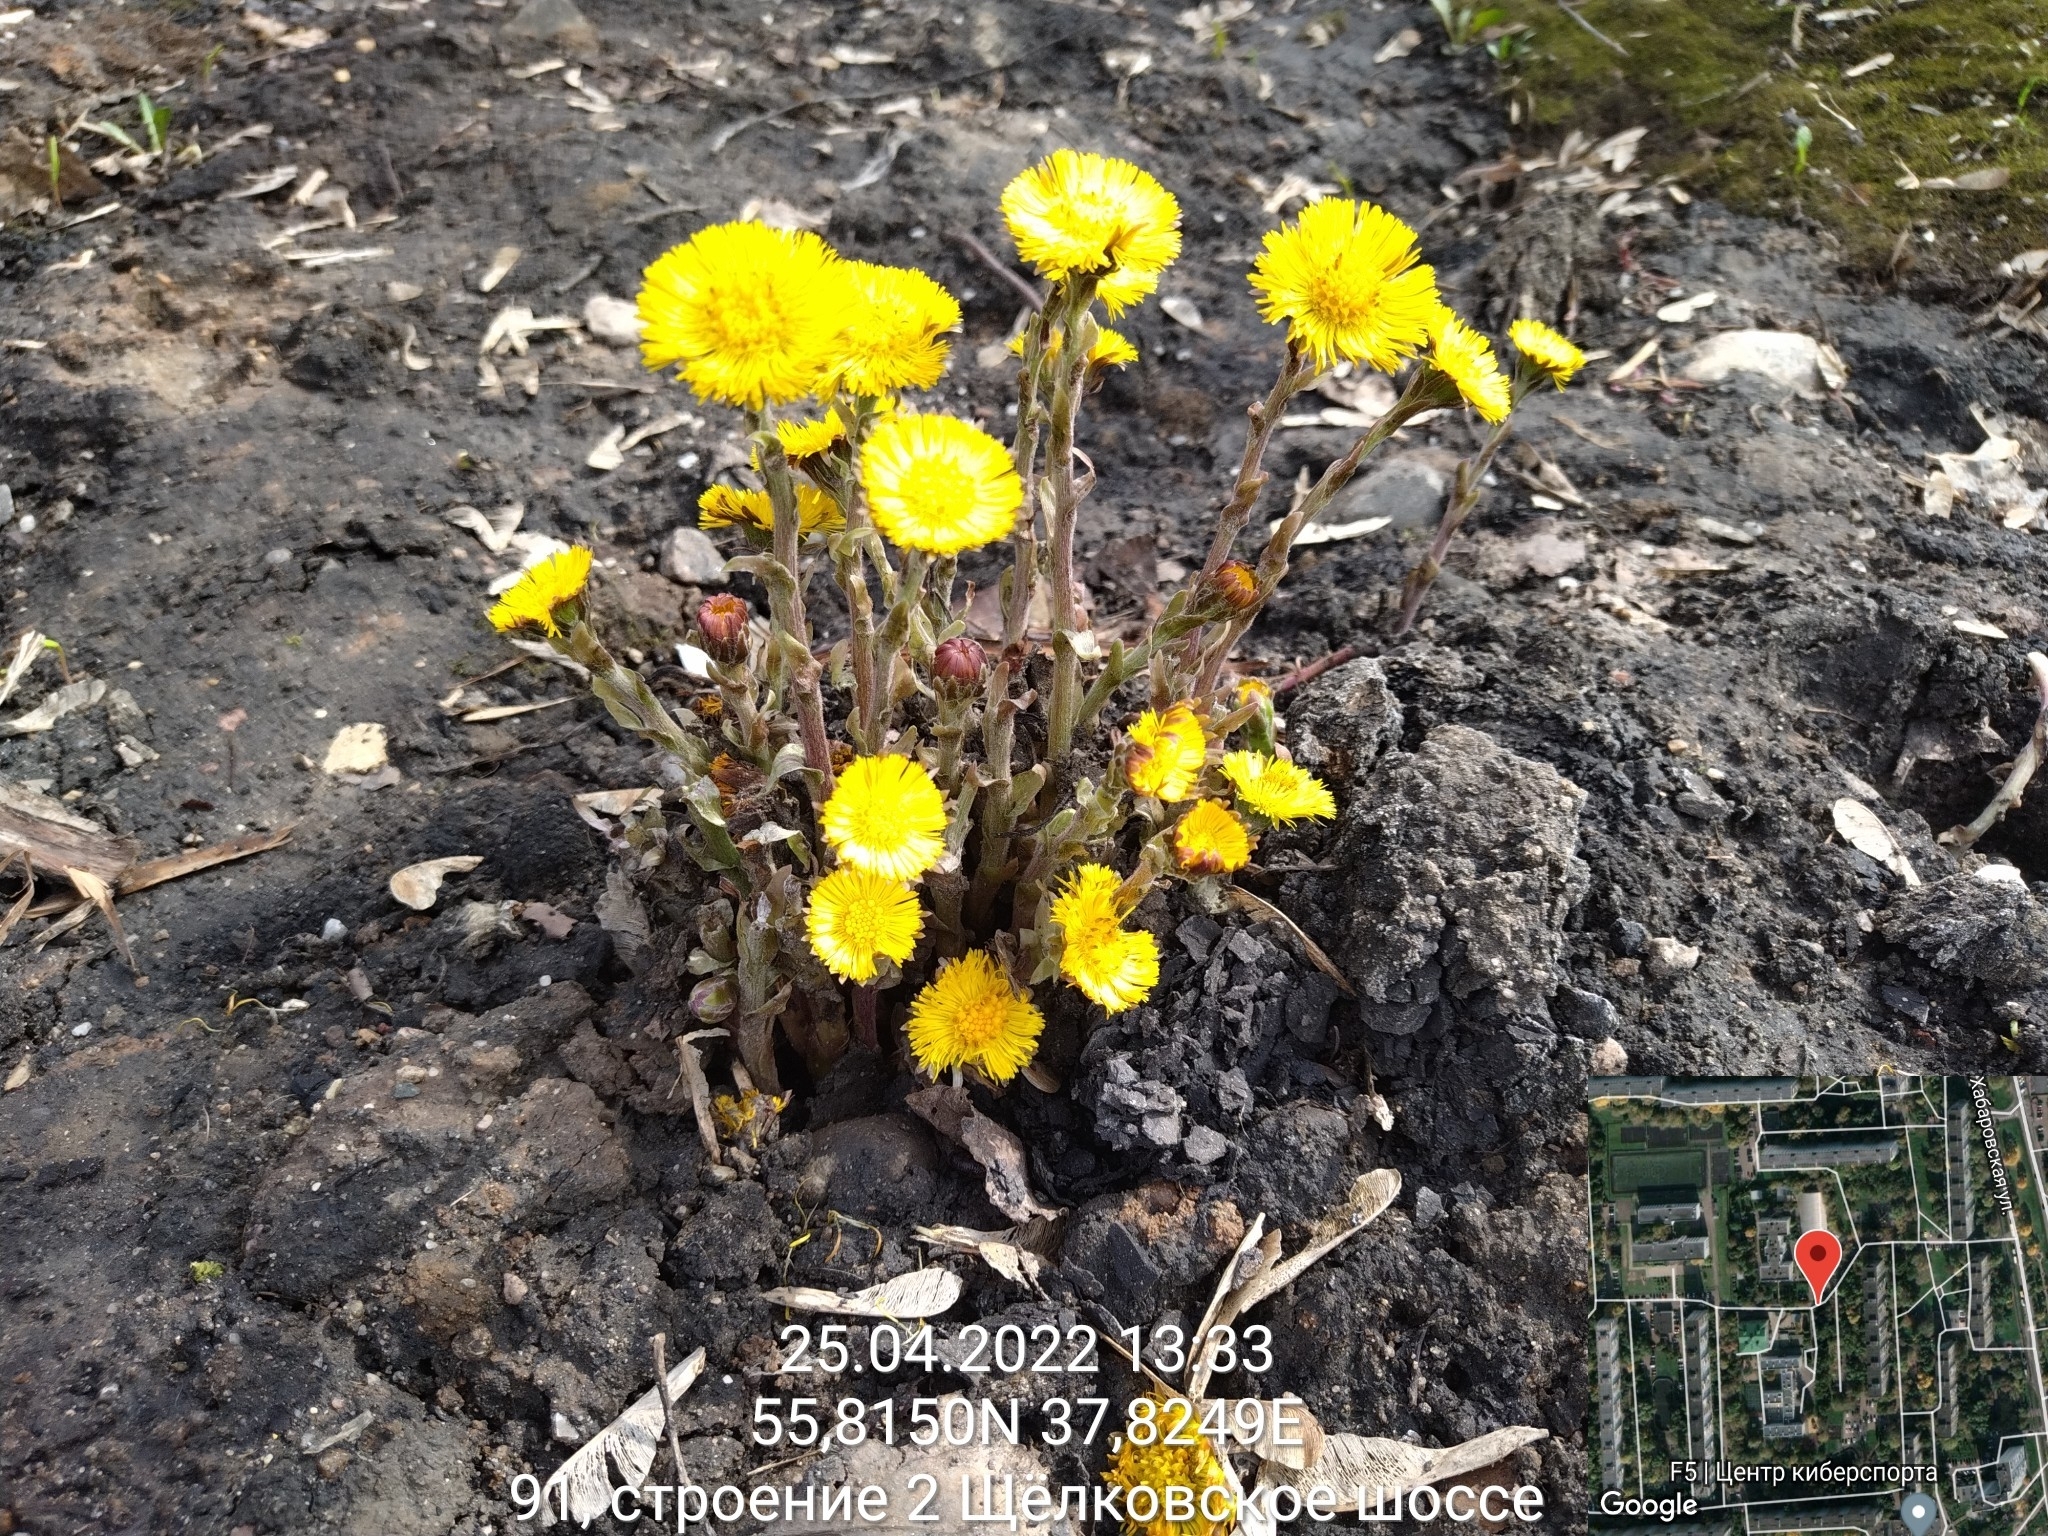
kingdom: Plantae
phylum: Tracheophyta
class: Magnoliopsida
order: Asterales
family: Asteraceae
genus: Tussilago
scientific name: Tussilago farfara
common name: Coltsfoot
